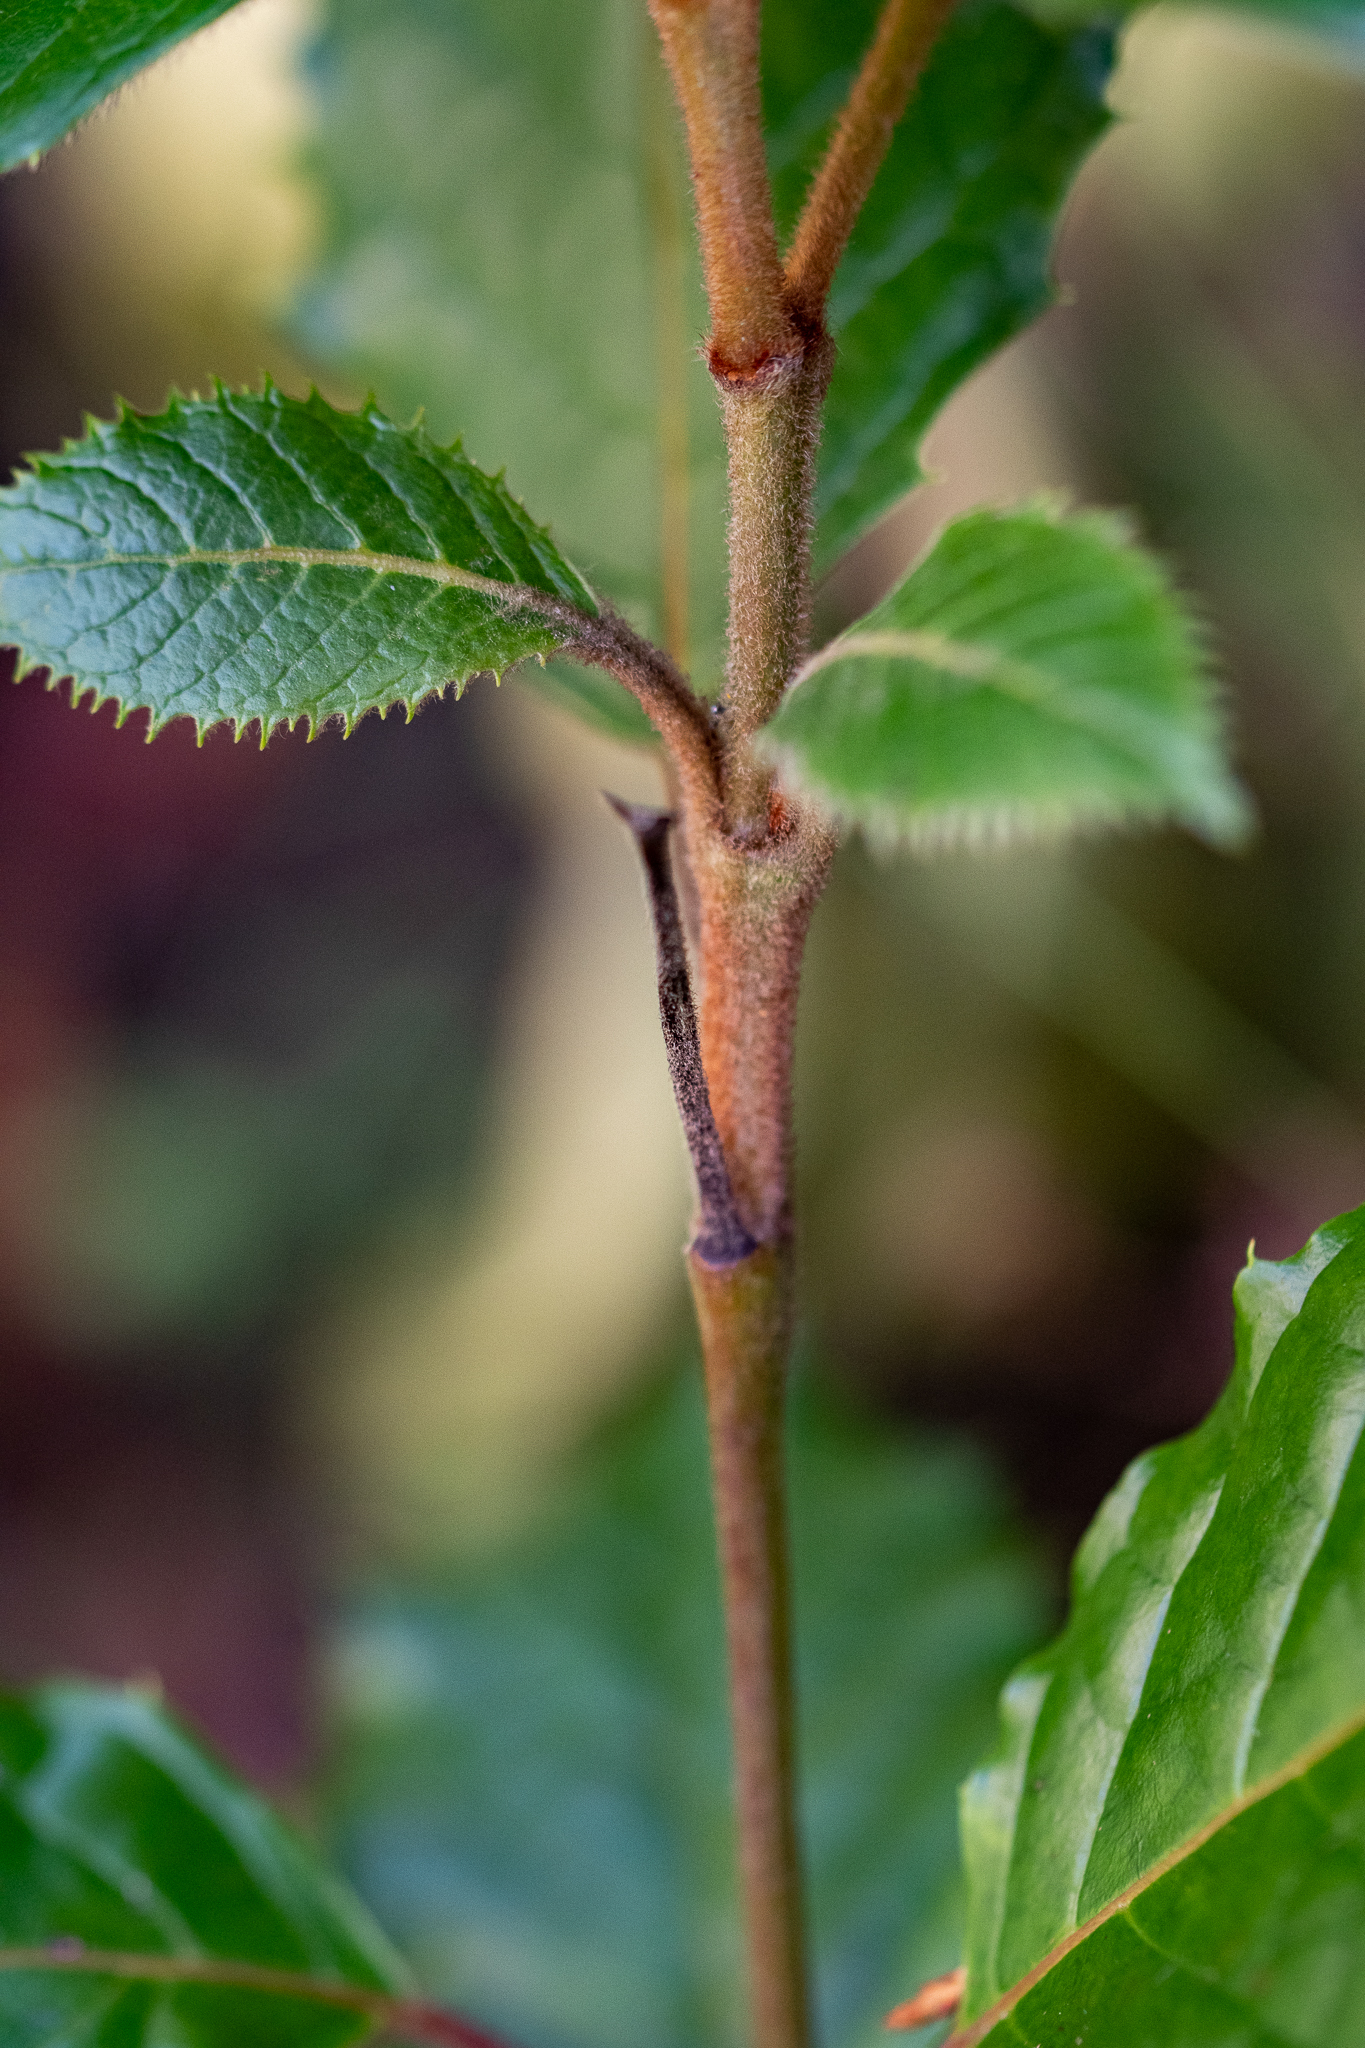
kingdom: Plantae
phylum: Tracheophyta
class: Magnoliopsida
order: Cornales
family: Curtisiaceae
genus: Curtisia
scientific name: Curtisia dentata
